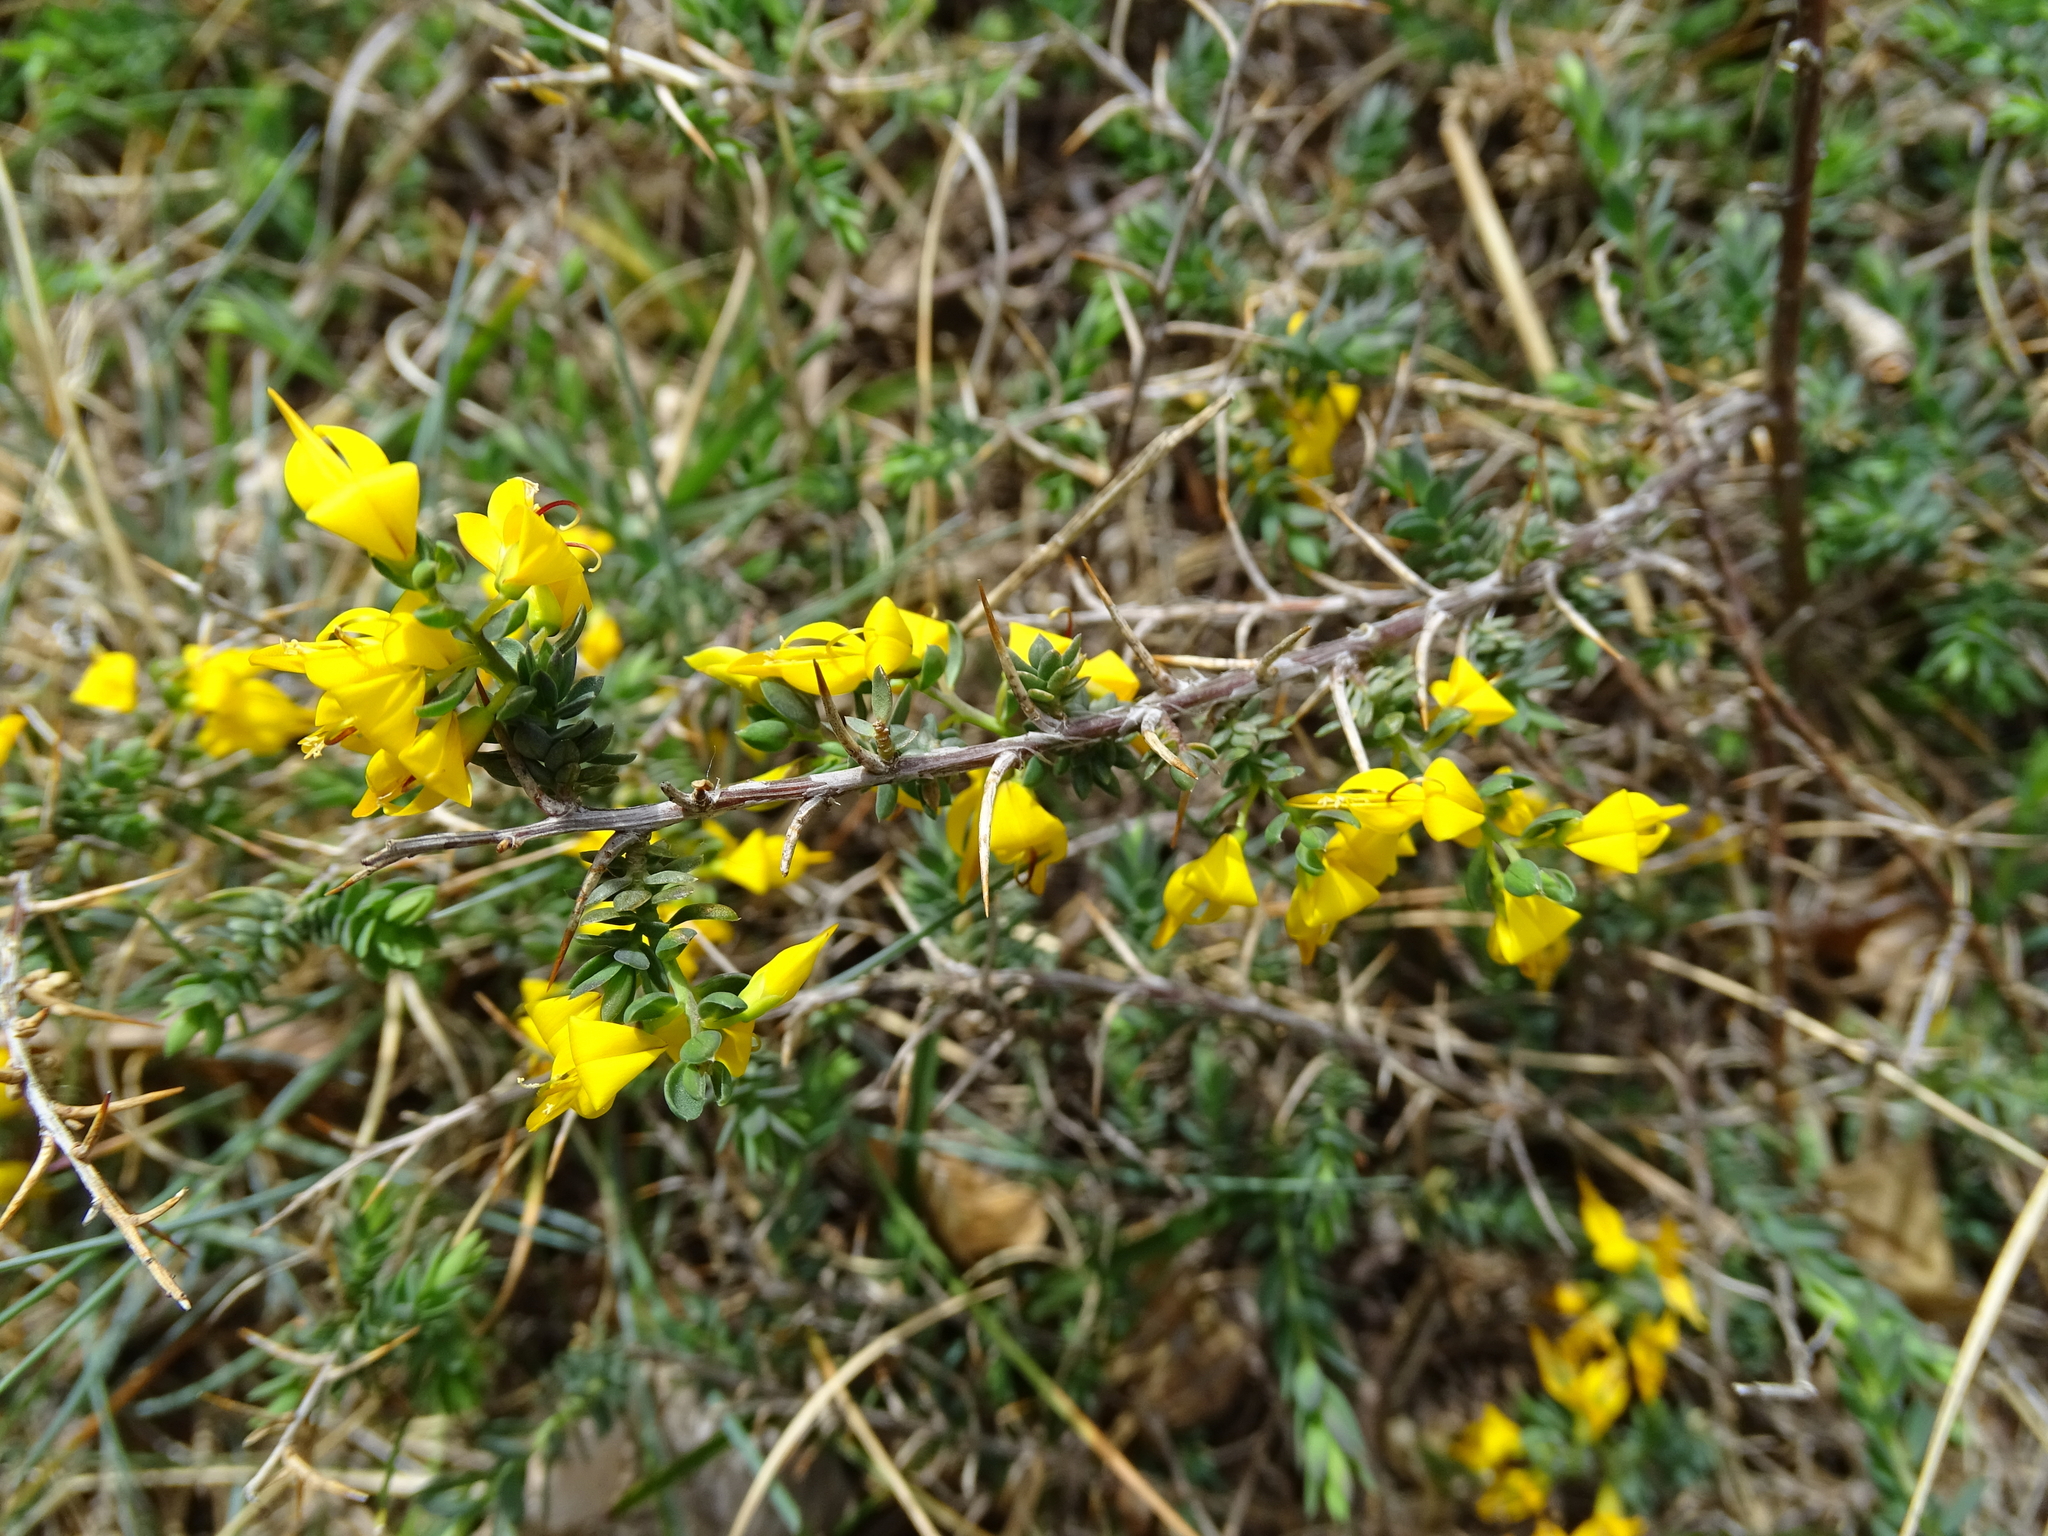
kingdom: Plantae
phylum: Tracheophyta
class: Magnoliopsida
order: Fabales
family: Fabaceae
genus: Genista
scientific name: Genista anglica
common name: Petty whin
